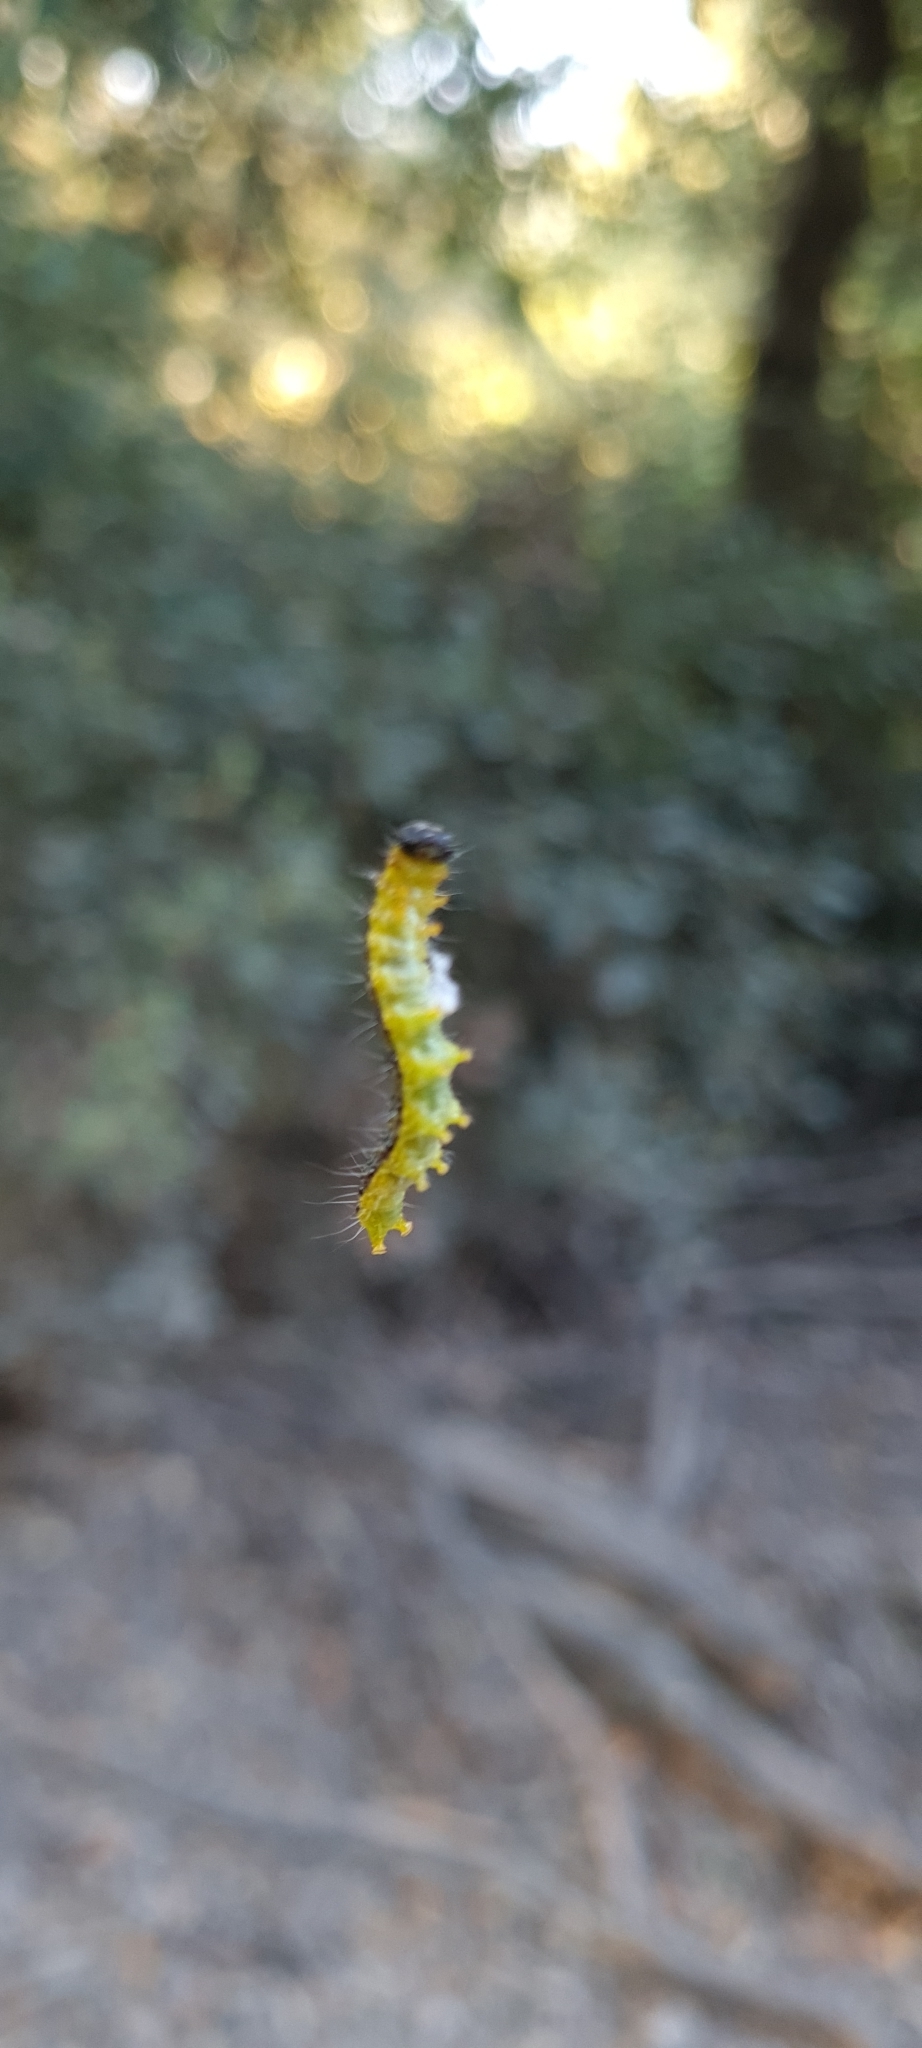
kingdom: Animalia
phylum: Arthropoda
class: Insecta
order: Lepidoptera
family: Crambidae
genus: Cydalima
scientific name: Cydalima perspectalis
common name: Box tree moth
